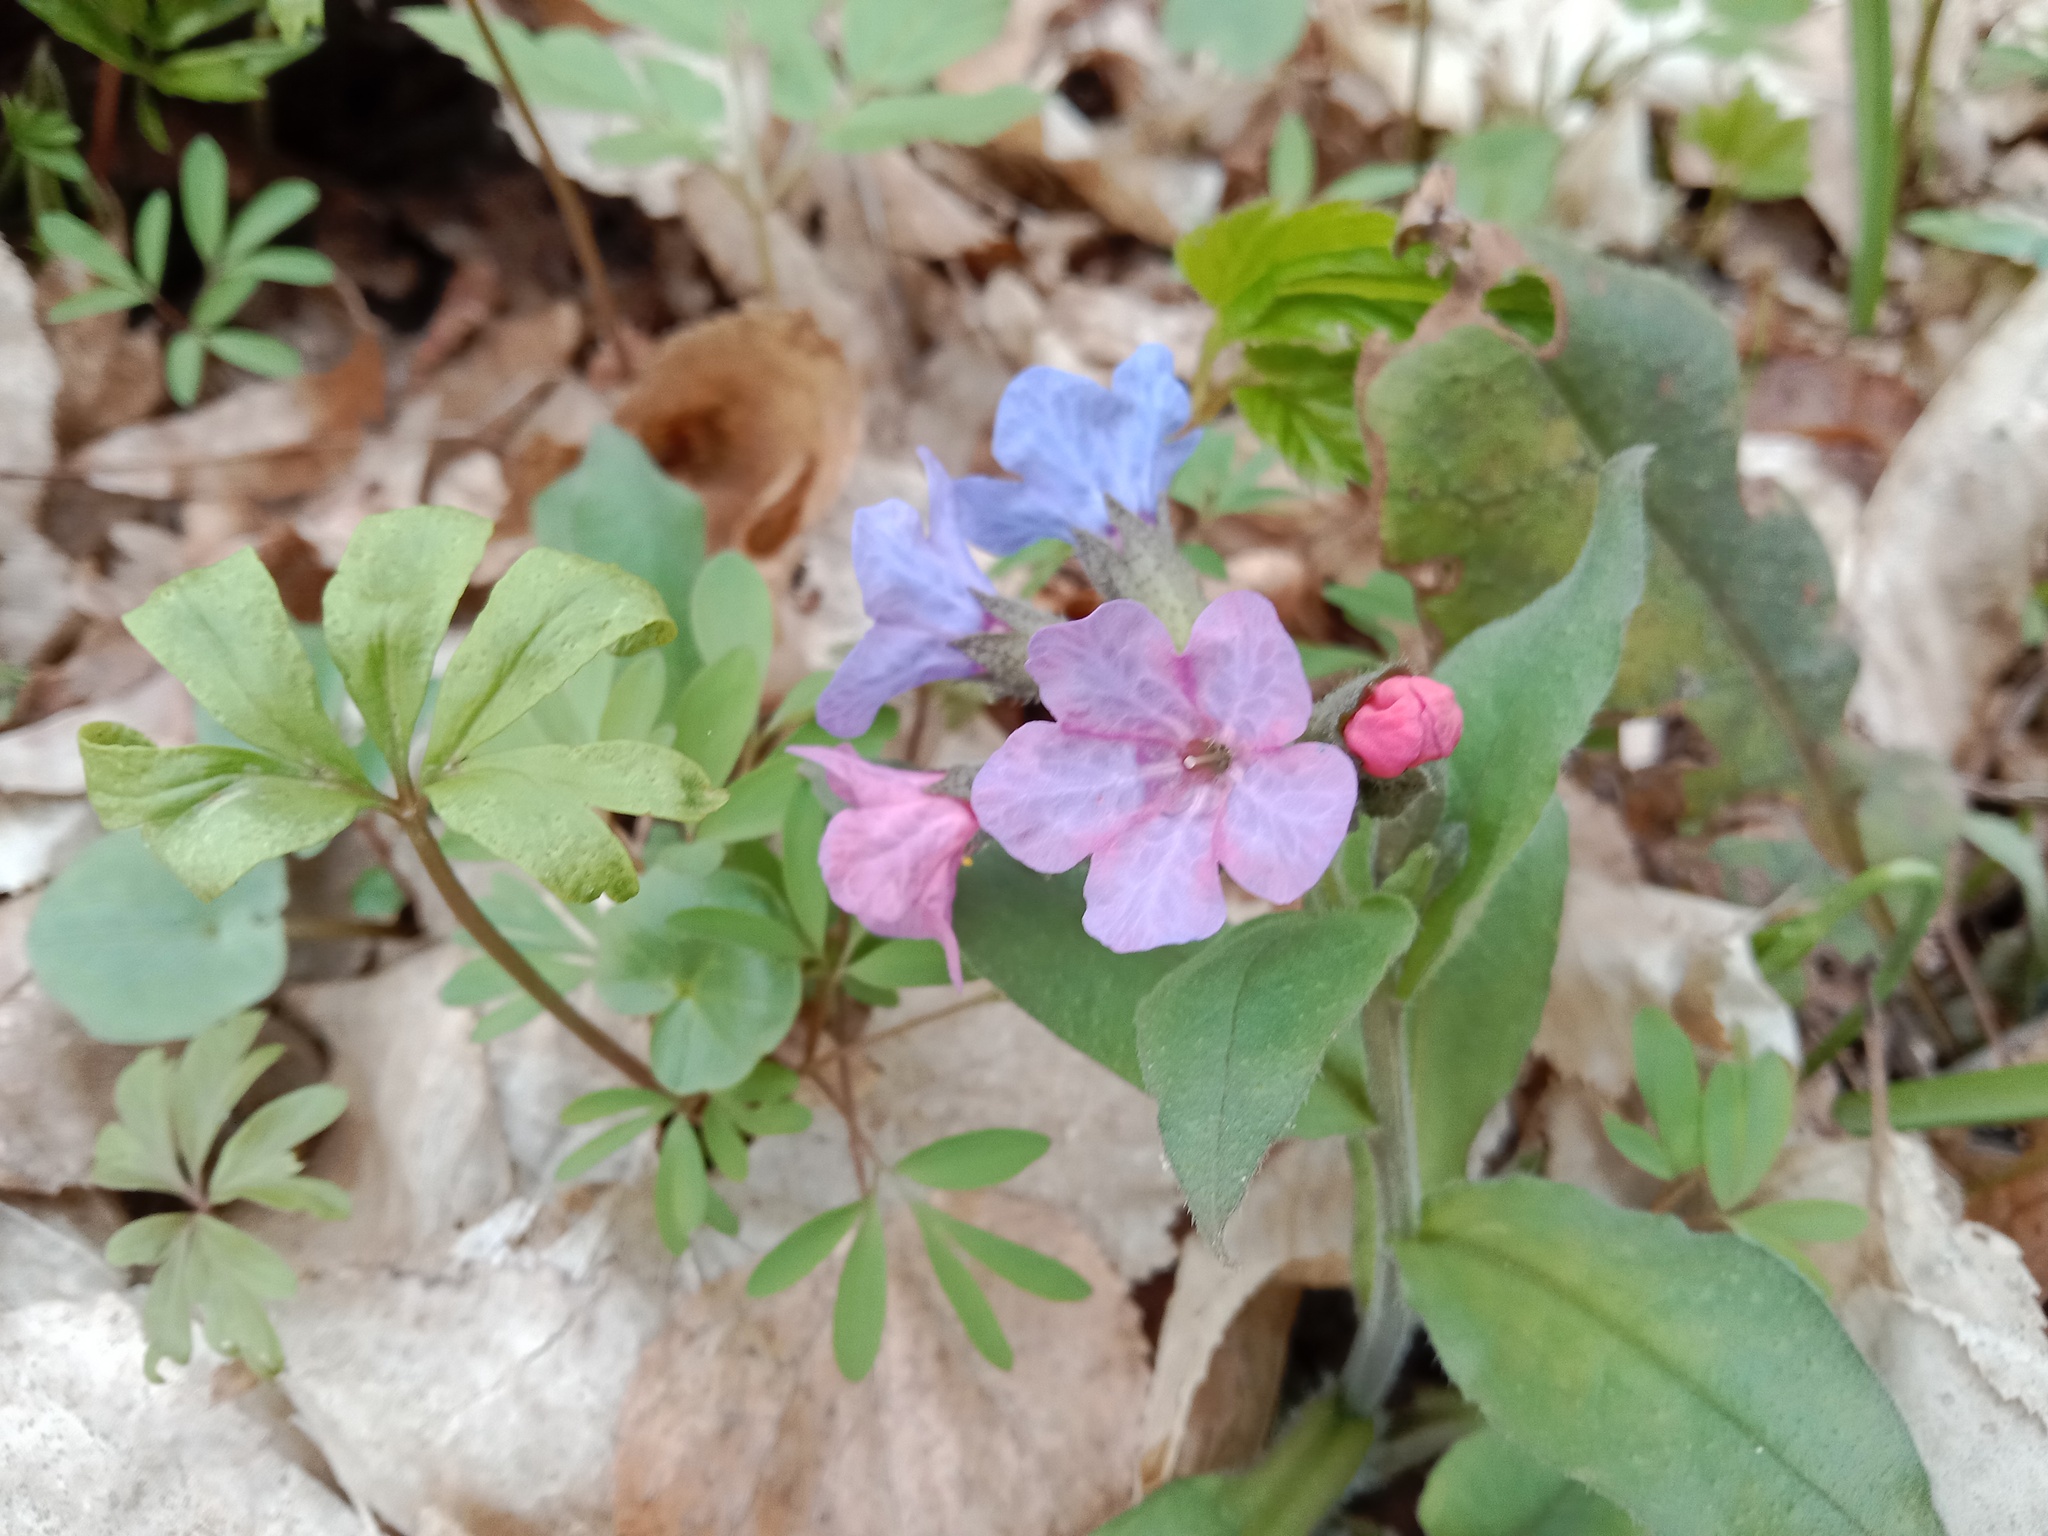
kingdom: Plantae
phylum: Tracheophyta
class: Magnoliopsida
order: Boraginales
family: Boraginaceae
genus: Pulmonaria
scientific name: Pulmonaria obscura
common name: Suffolk lungwort
